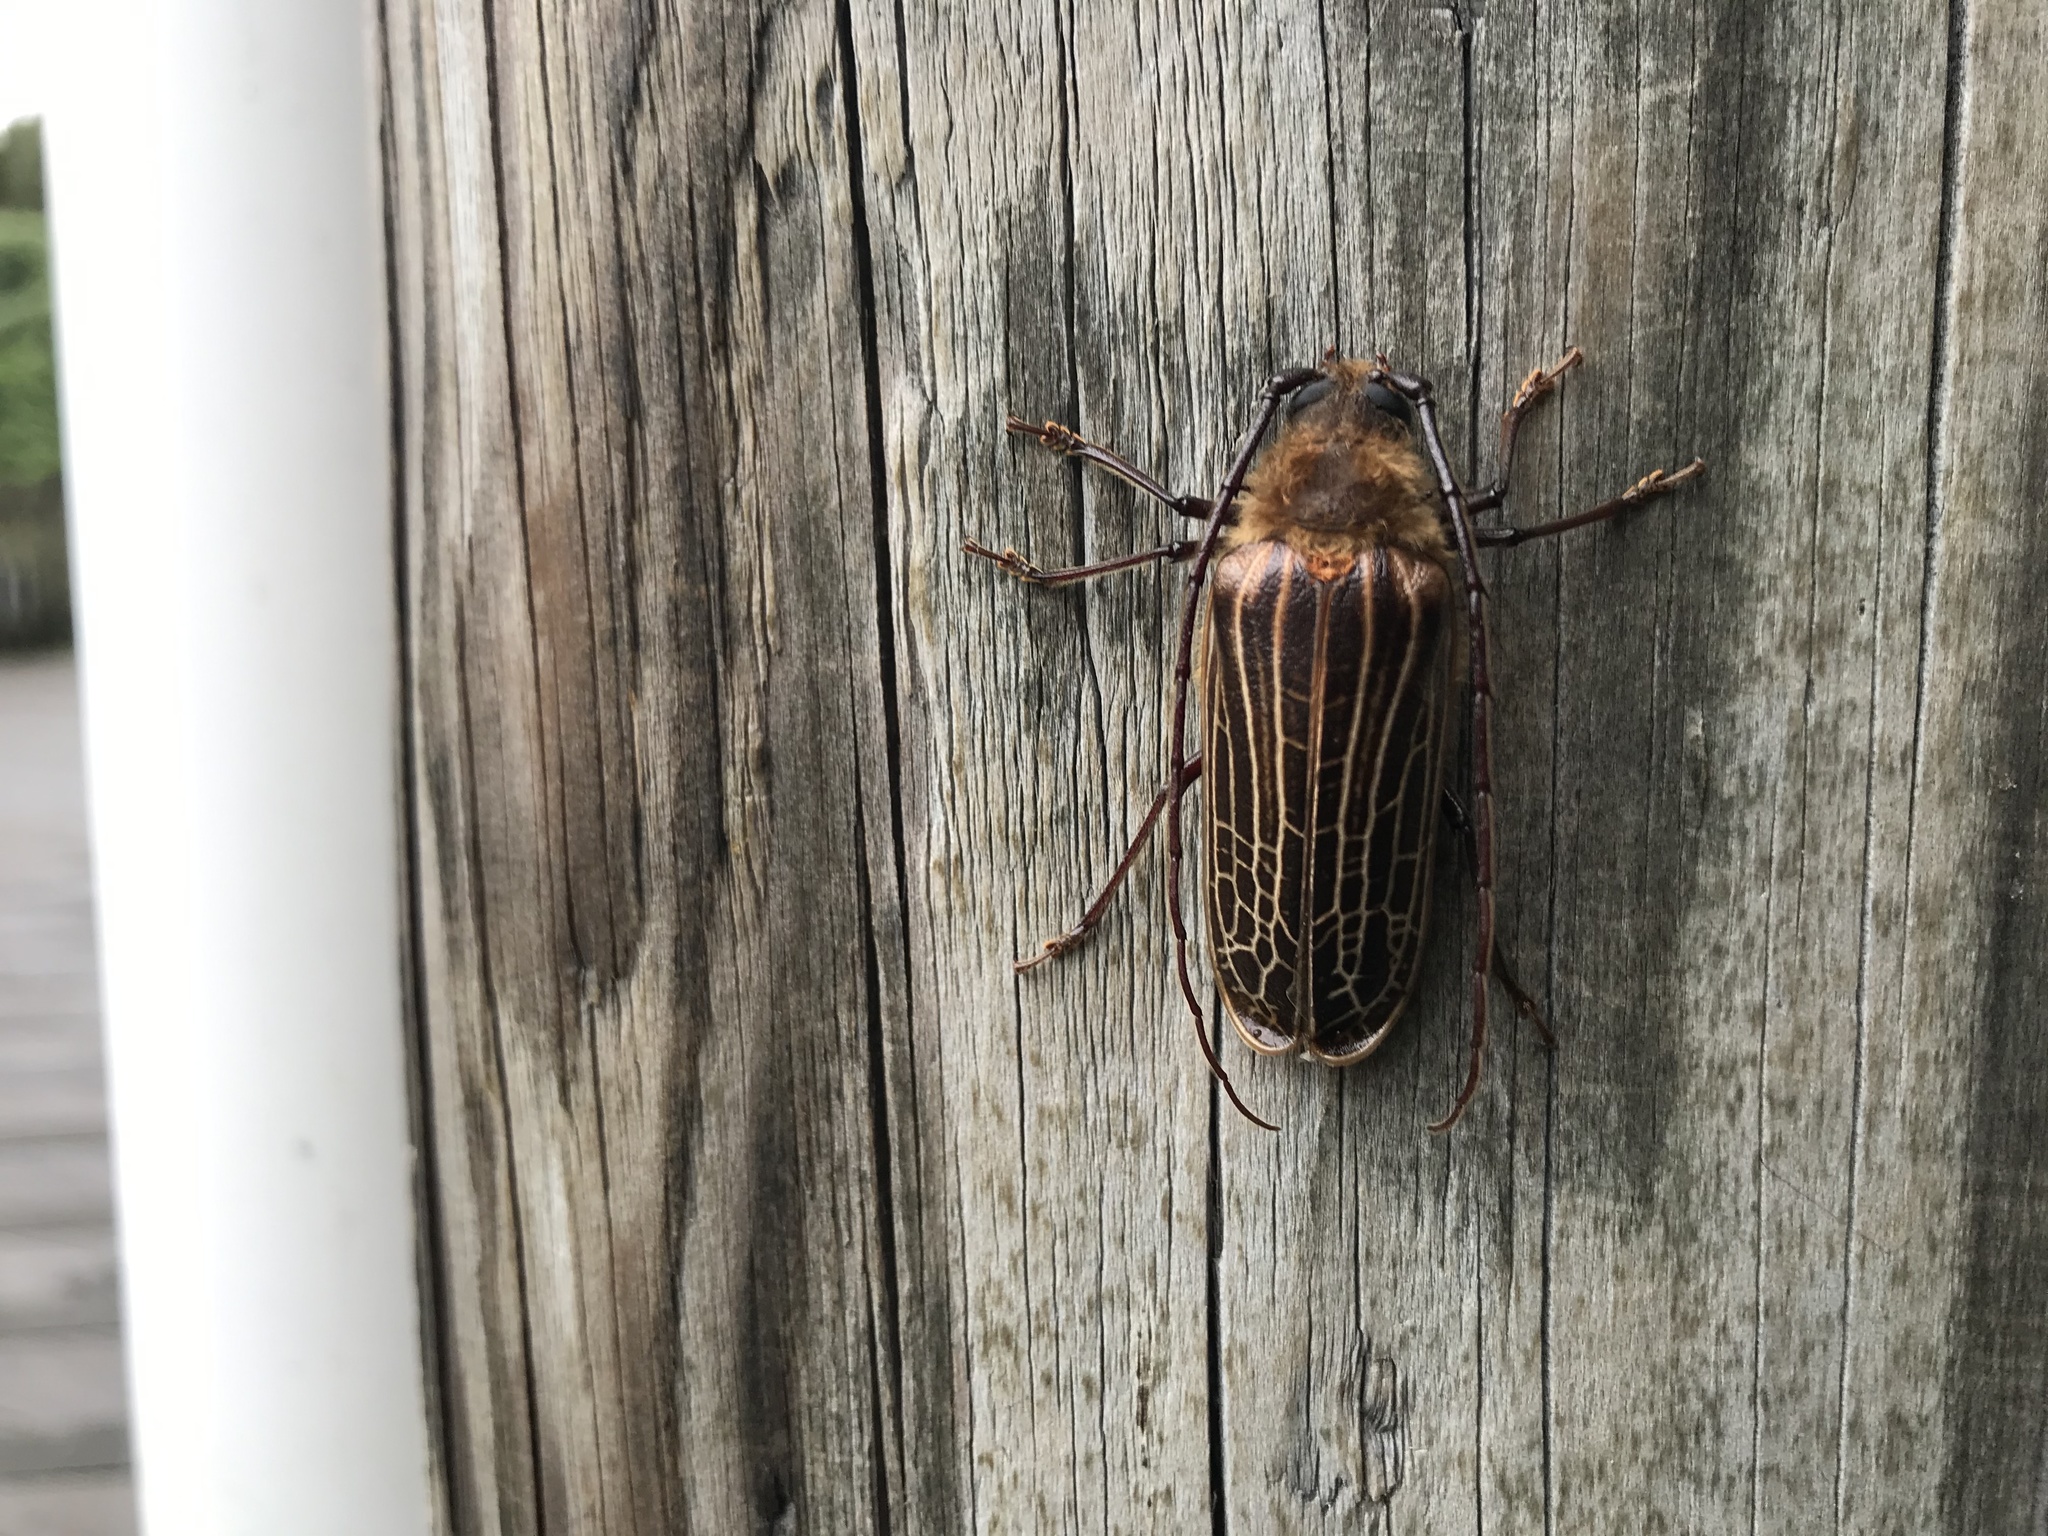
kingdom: Animalia
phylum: Arthropoda
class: Insecta
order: Coleoptera
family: Cerambycidae
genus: Prionoplus
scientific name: Prionoplus reticularis
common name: Huhu beetle
